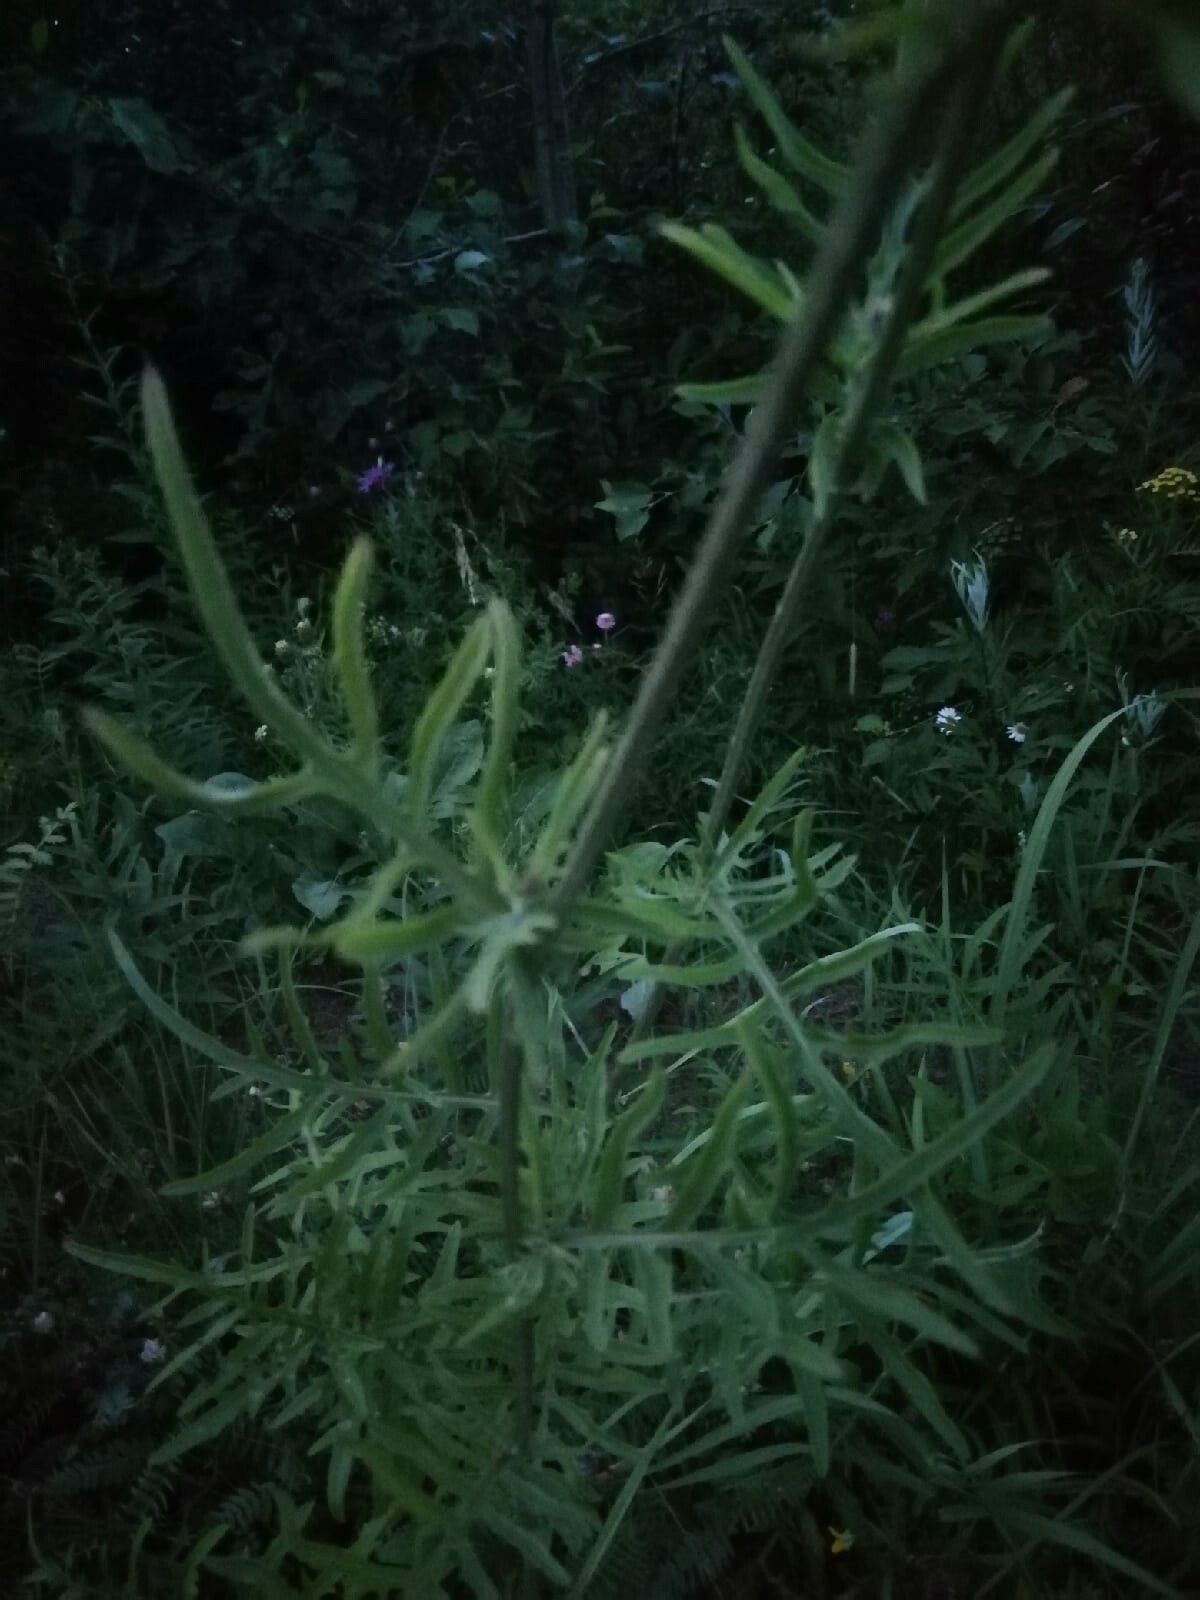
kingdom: Plantae
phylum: Tracheophyta
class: Magnoliopsida
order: Asterales
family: Asteraceae
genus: Centaurea
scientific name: Centaurea scabiosa
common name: Greater knapweed
